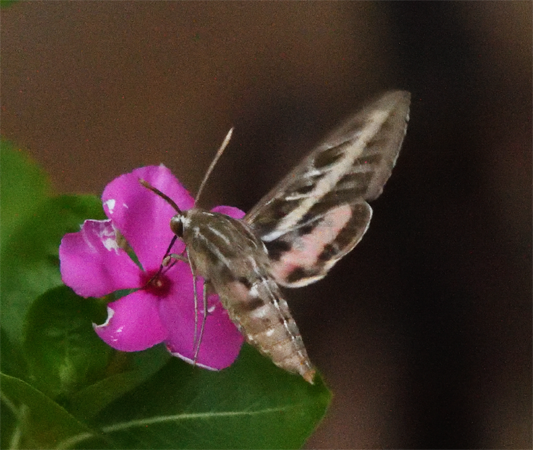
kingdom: Animalia
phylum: Arthropoda
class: Insecta
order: Lepidoptera
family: Sphingidae
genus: Hyles
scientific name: Hyles lineata
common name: White-lined sphinx
